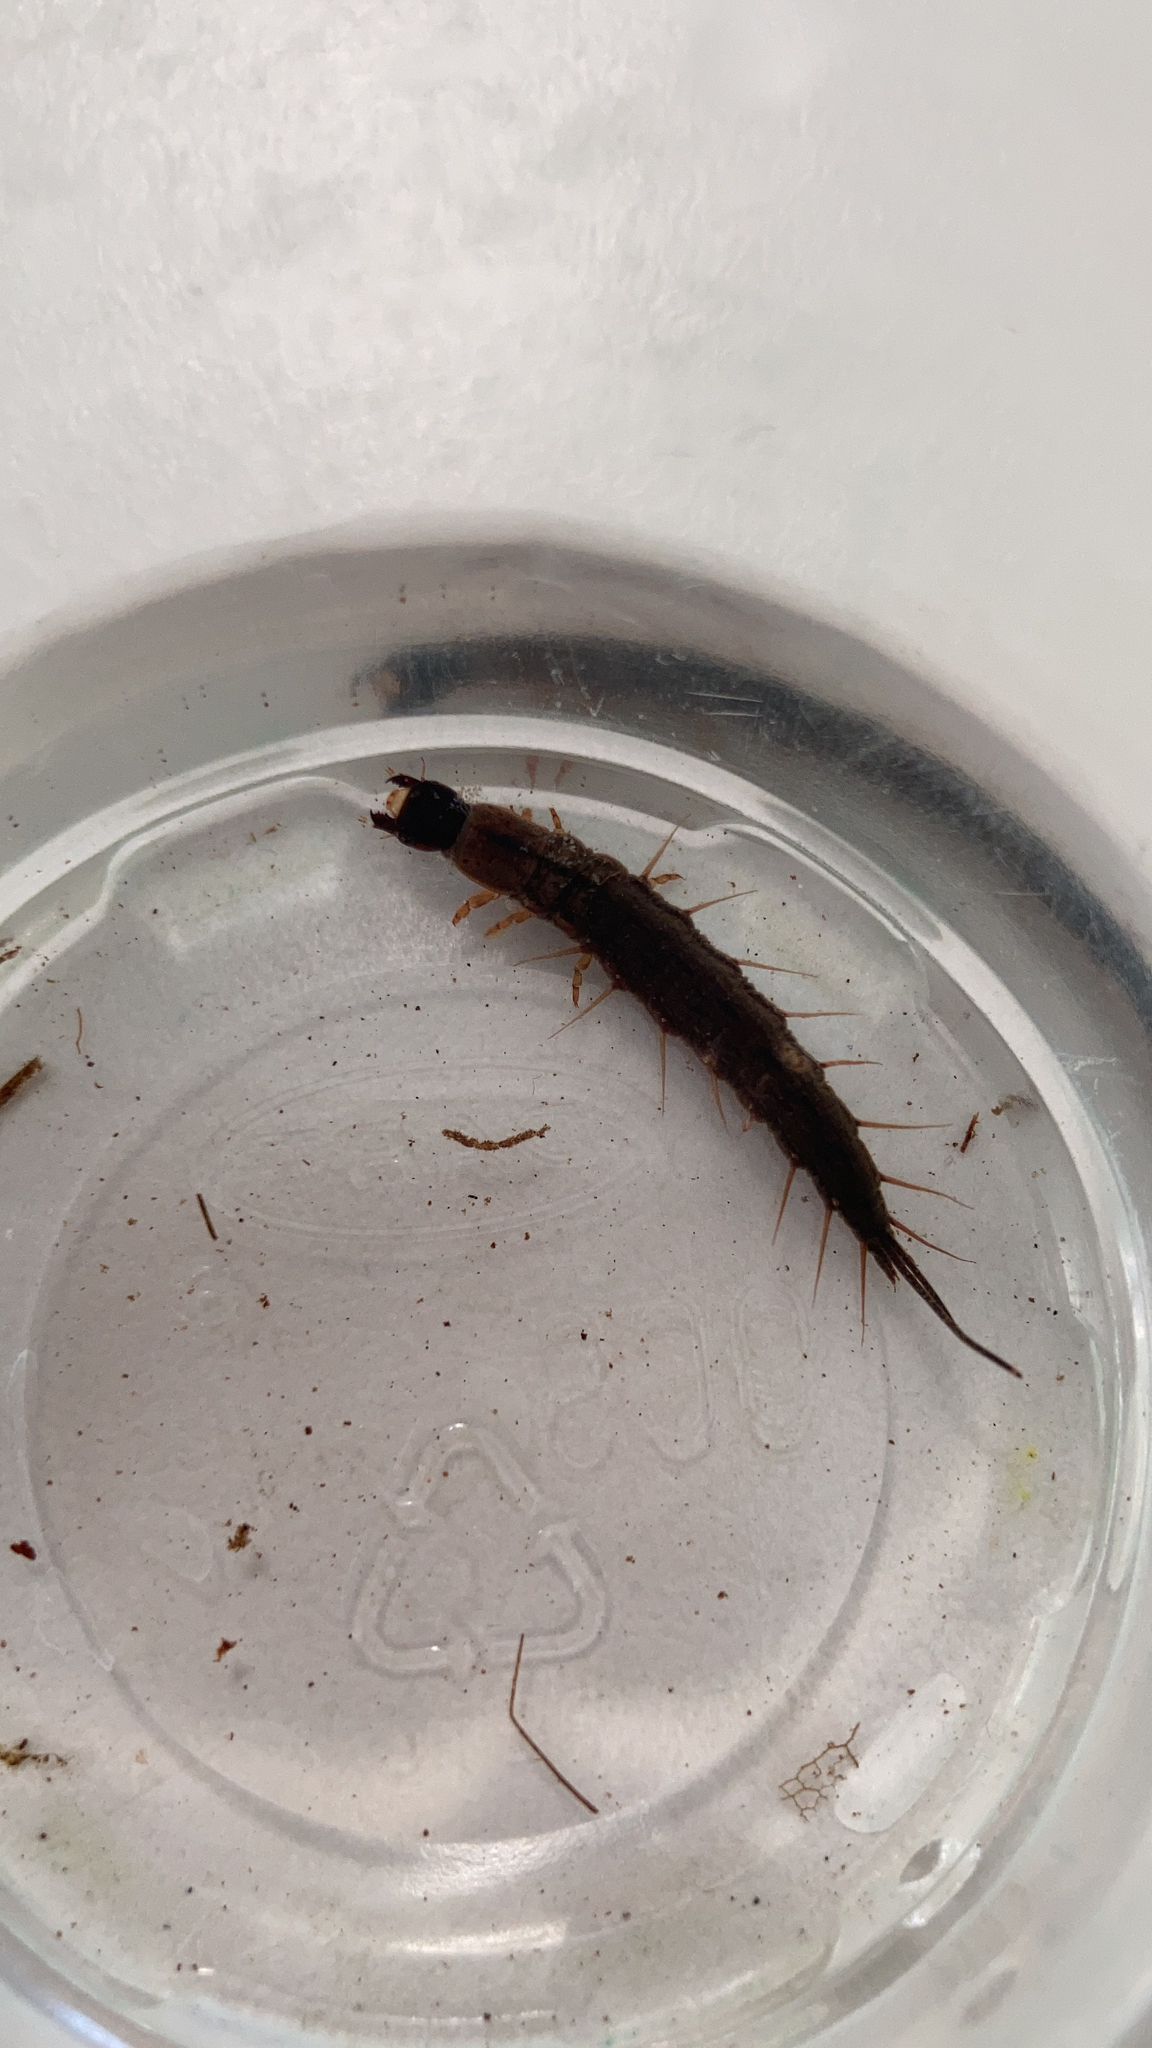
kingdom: Animalia
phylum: Arthropoda
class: Insecta
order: Megaloptera
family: Corydalidae
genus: Chauliodes
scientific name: Chauliodes rastricornis
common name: Spring fishfly
